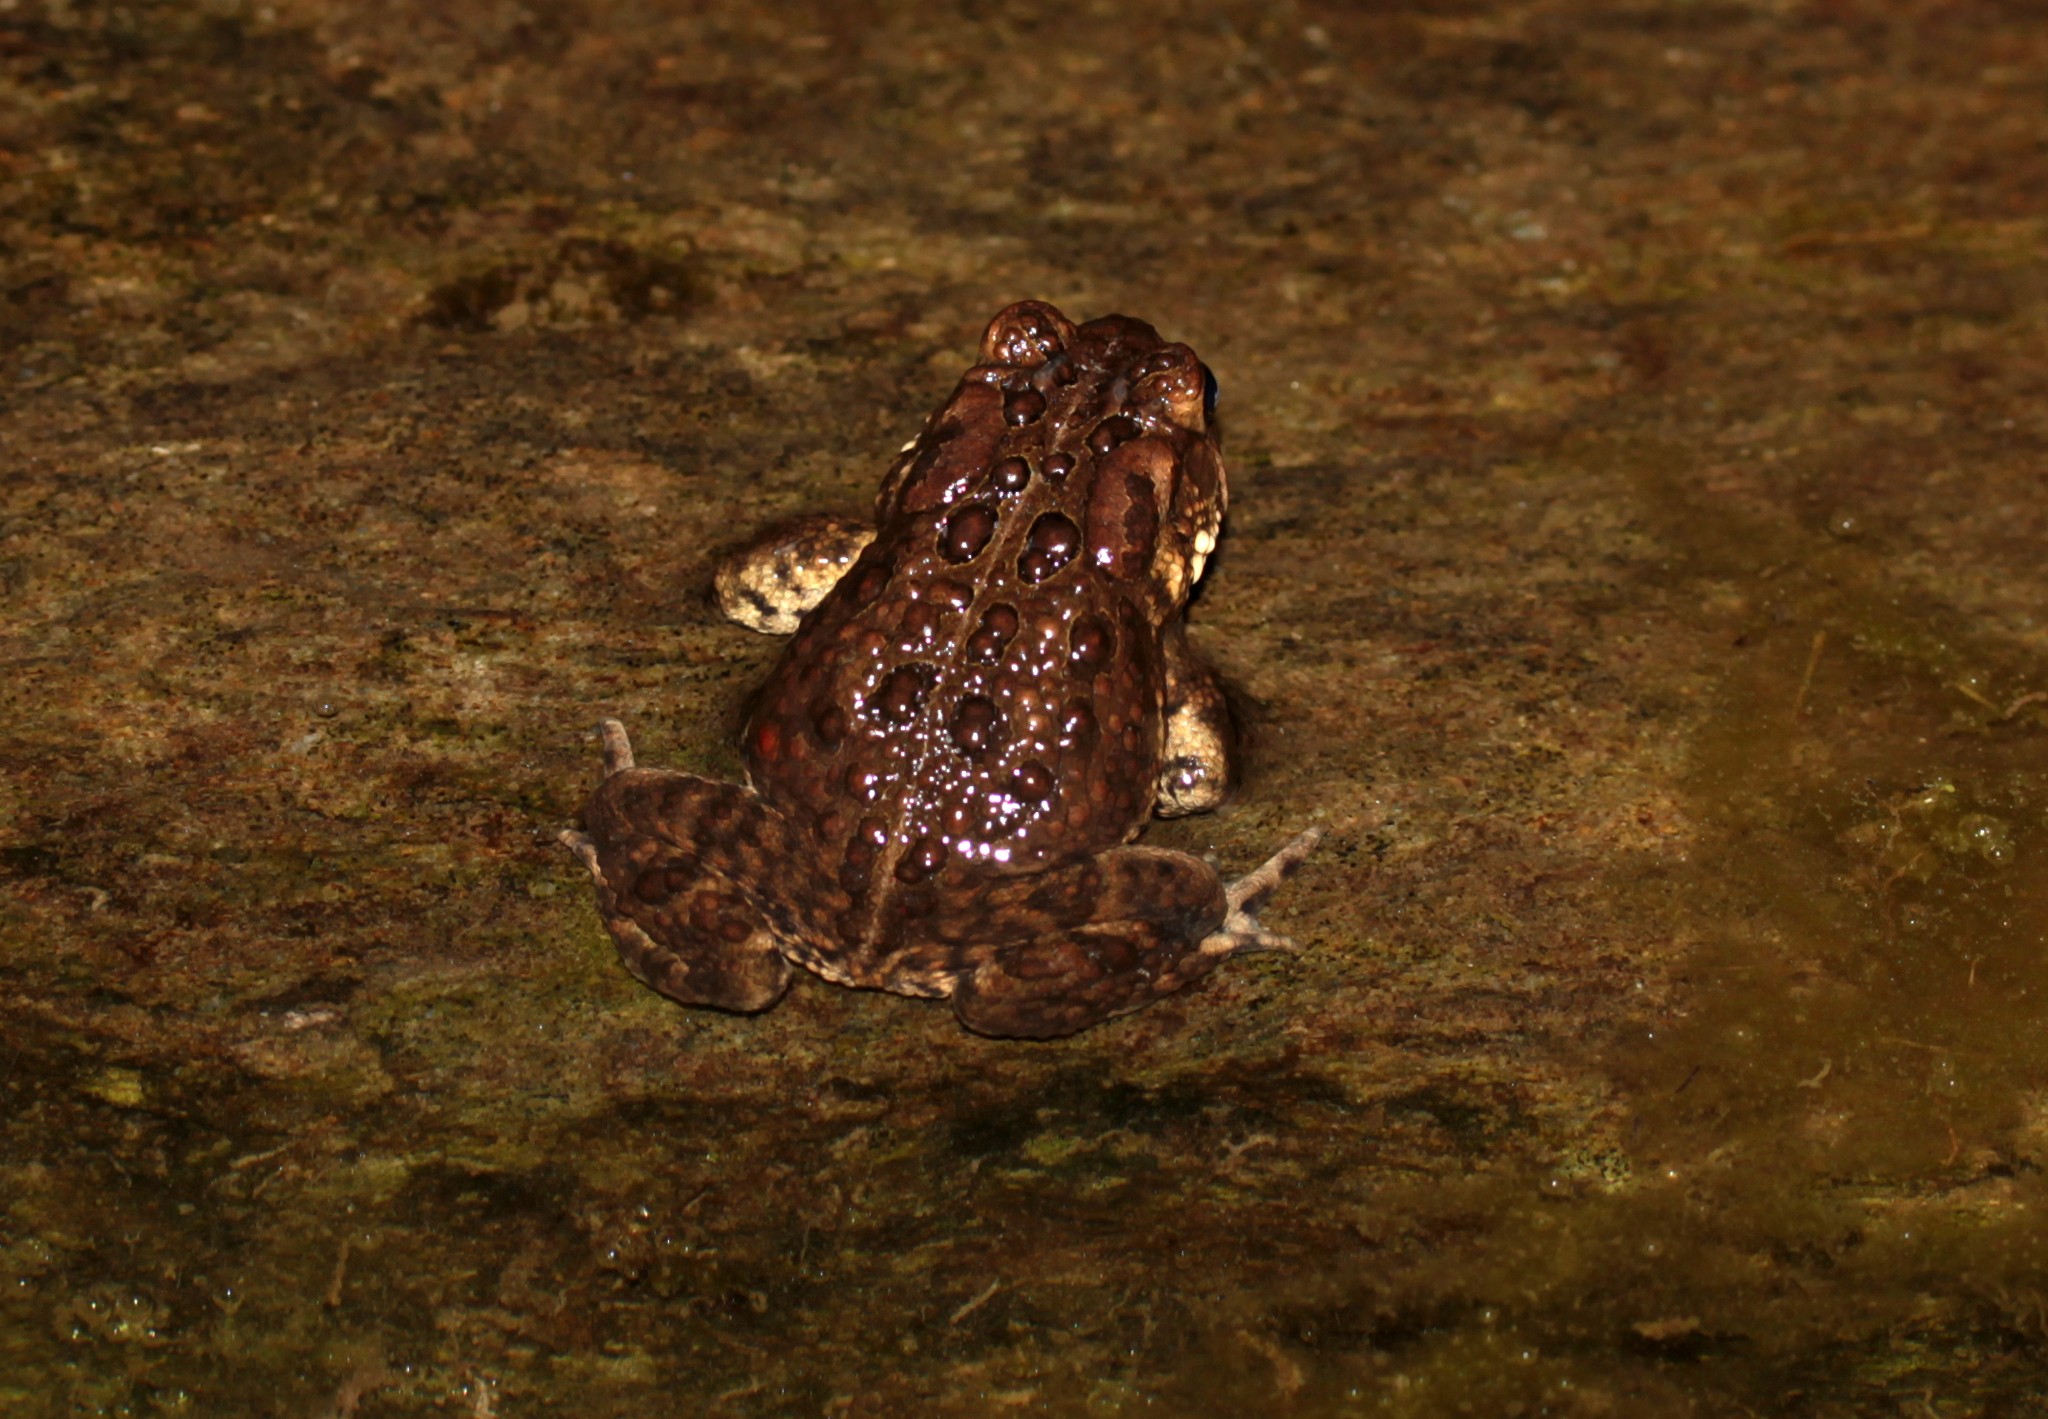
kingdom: Animalia
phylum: Chordata
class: Amphibia
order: Anura
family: Bufonidae
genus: Anaxyrus
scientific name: Anaxyrus americanus
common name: American toad
